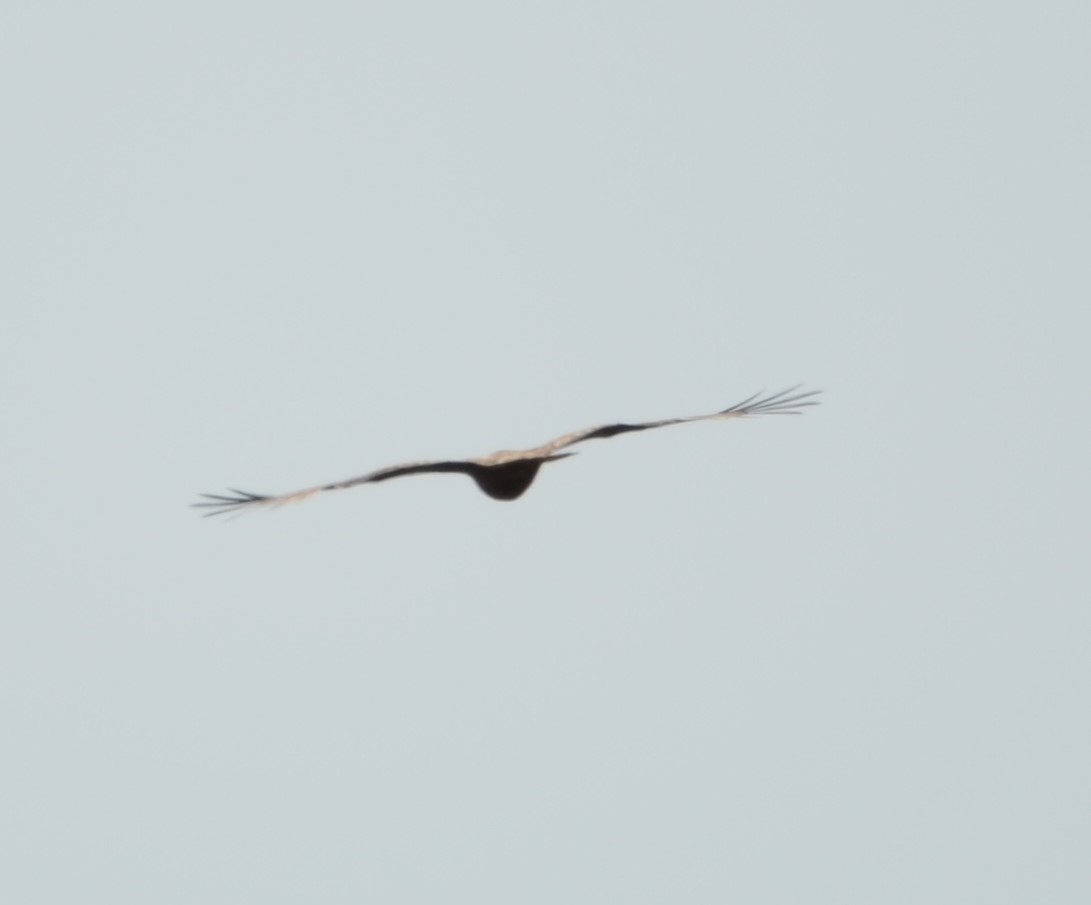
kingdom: Animalia
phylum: Chordata
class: Aves
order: Accipitriformes
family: Accipitridae
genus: Milvus
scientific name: Milvus migrans
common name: Black kite
